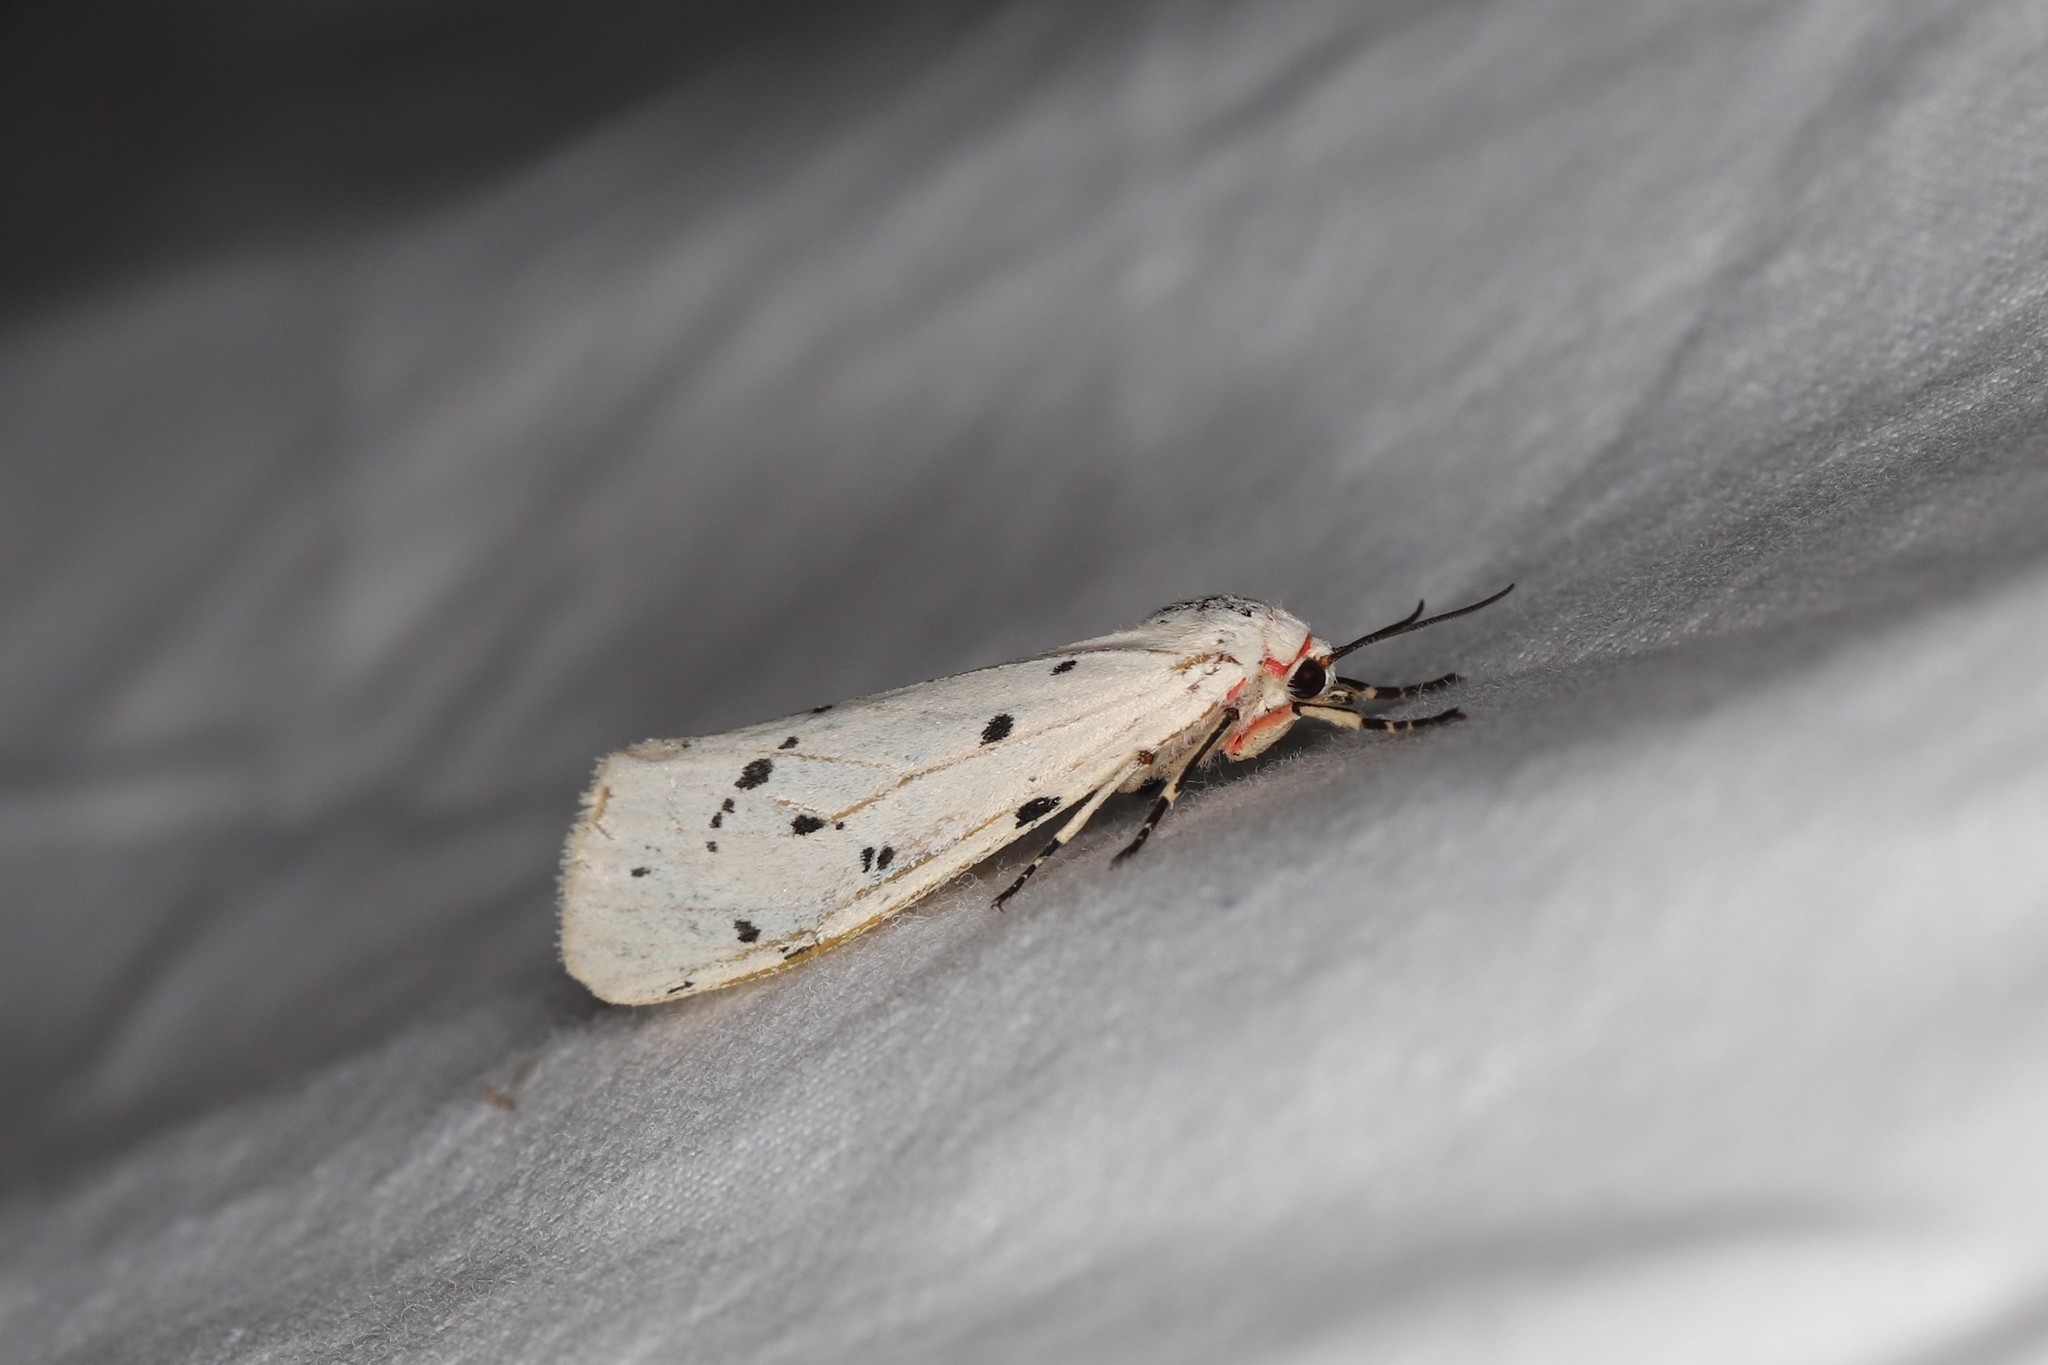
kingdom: Animalia
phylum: Arthropoda
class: Insecta
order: Lepidoptera
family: Erebidae
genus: Creataloum
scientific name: Creataloum arabicum
